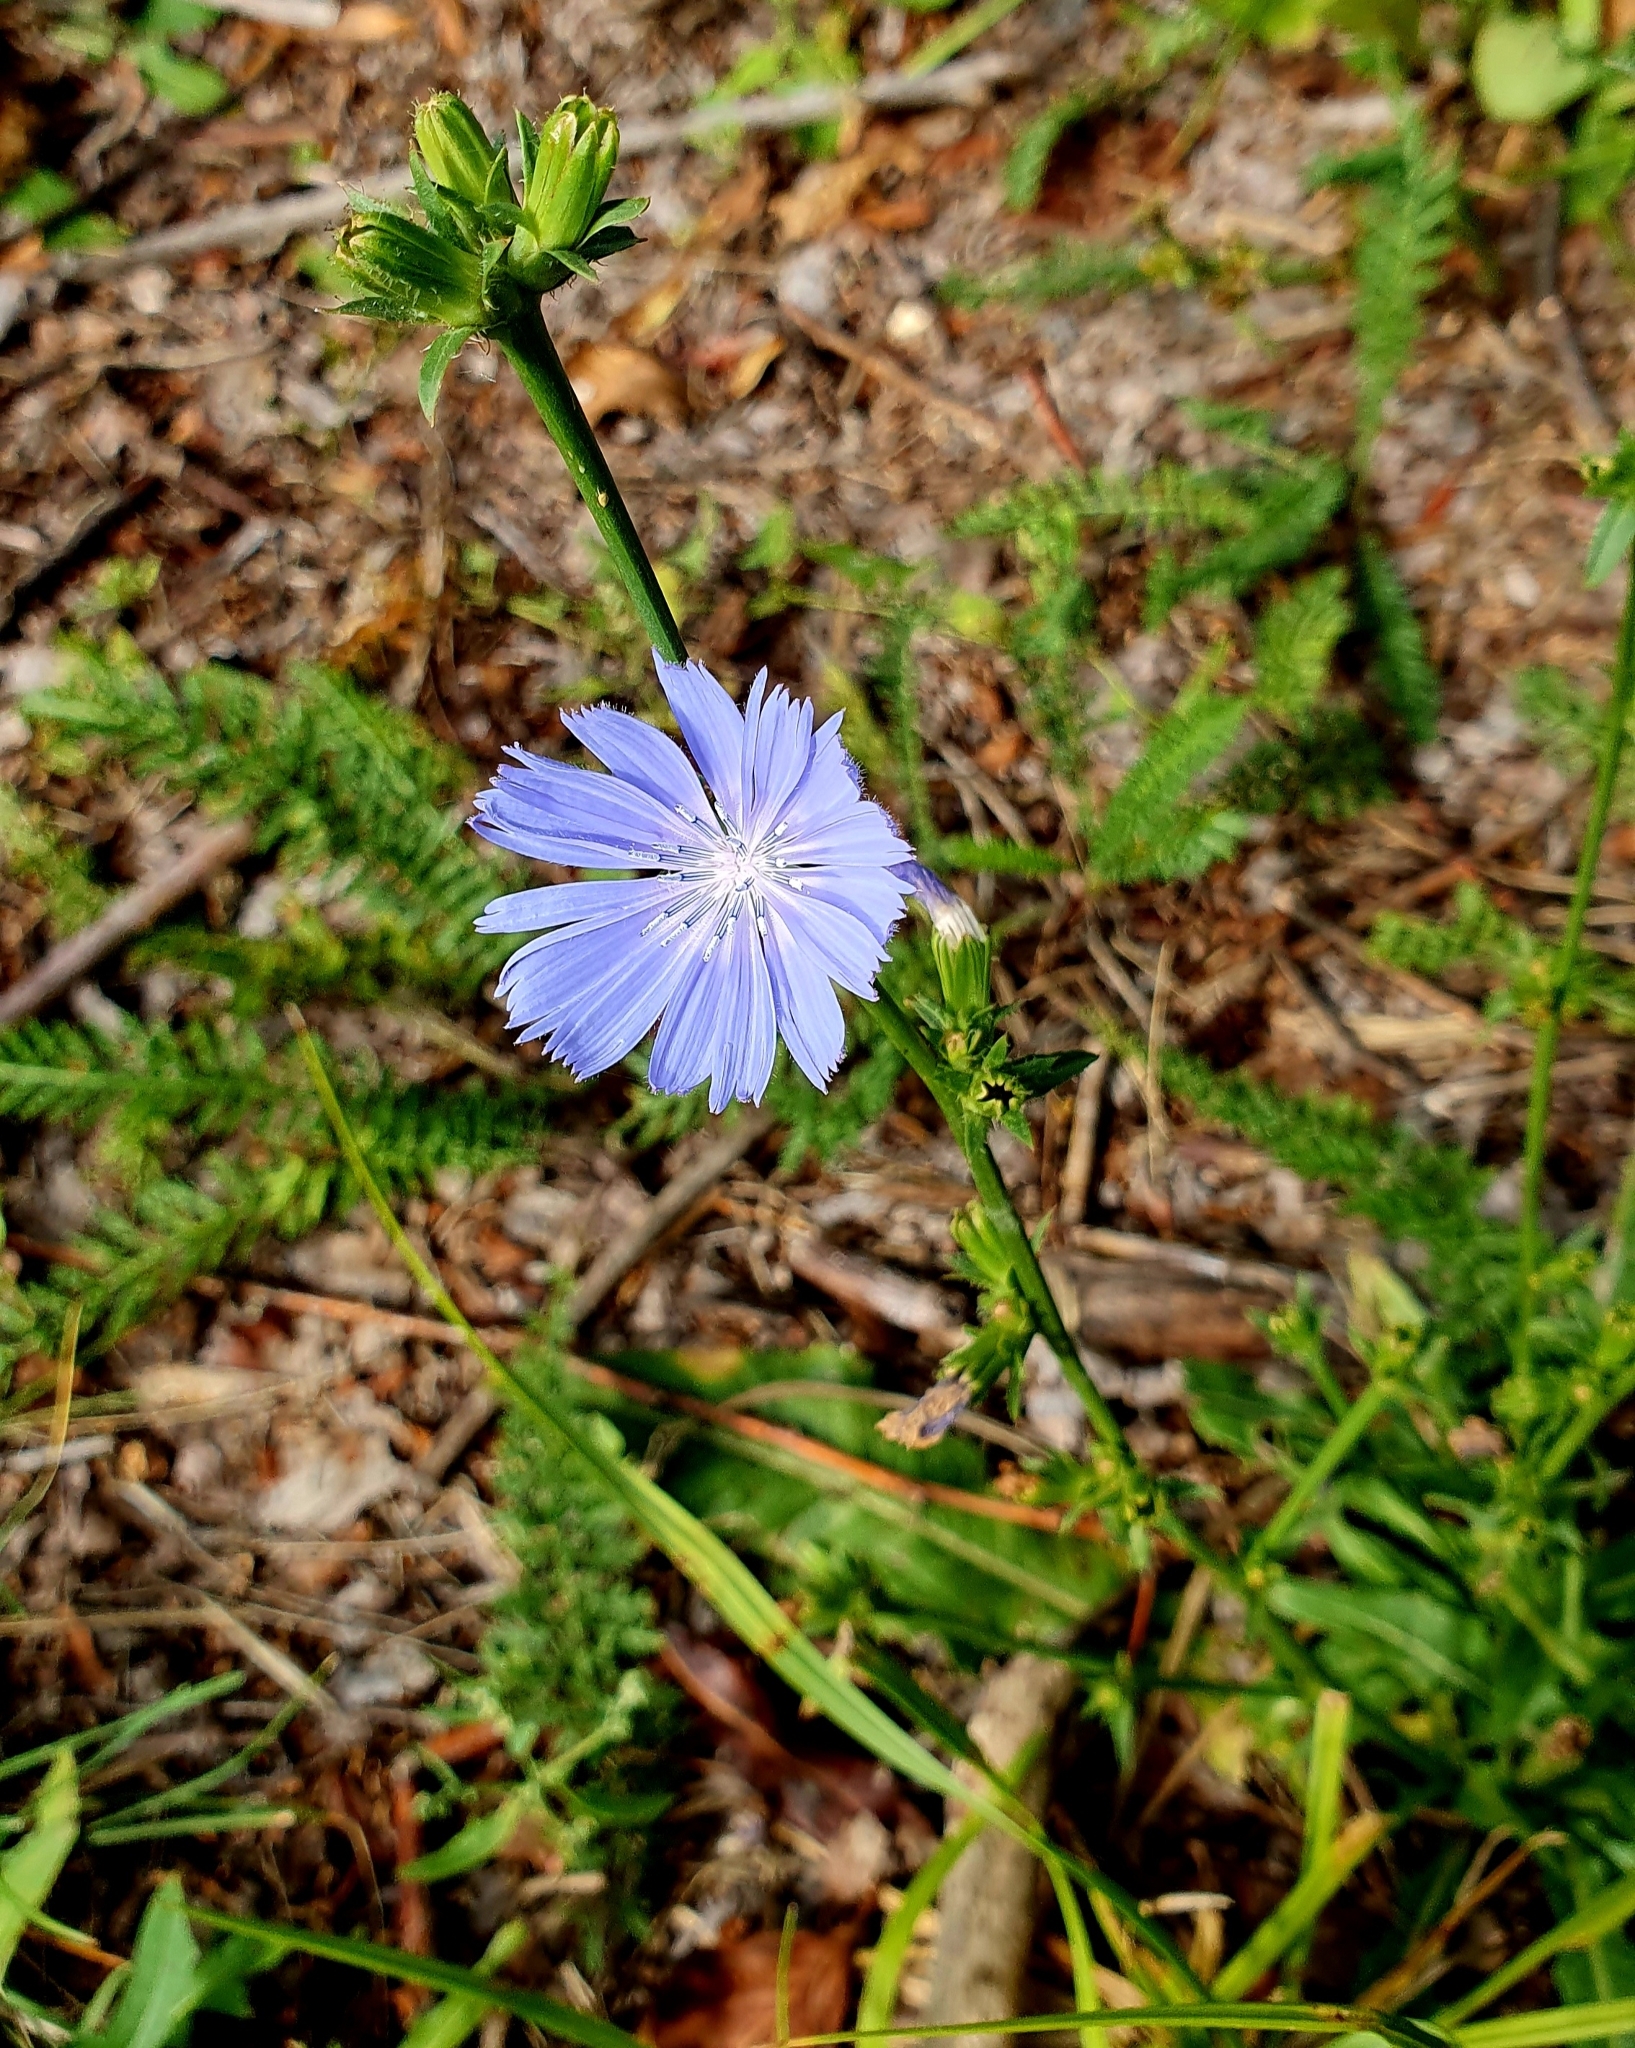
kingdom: Plantae
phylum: Tracheophyta
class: Magnoliopsida
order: Asterales
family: Asteraceae
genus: Cichorium
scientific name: Cichorium intybus
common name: Chicory
